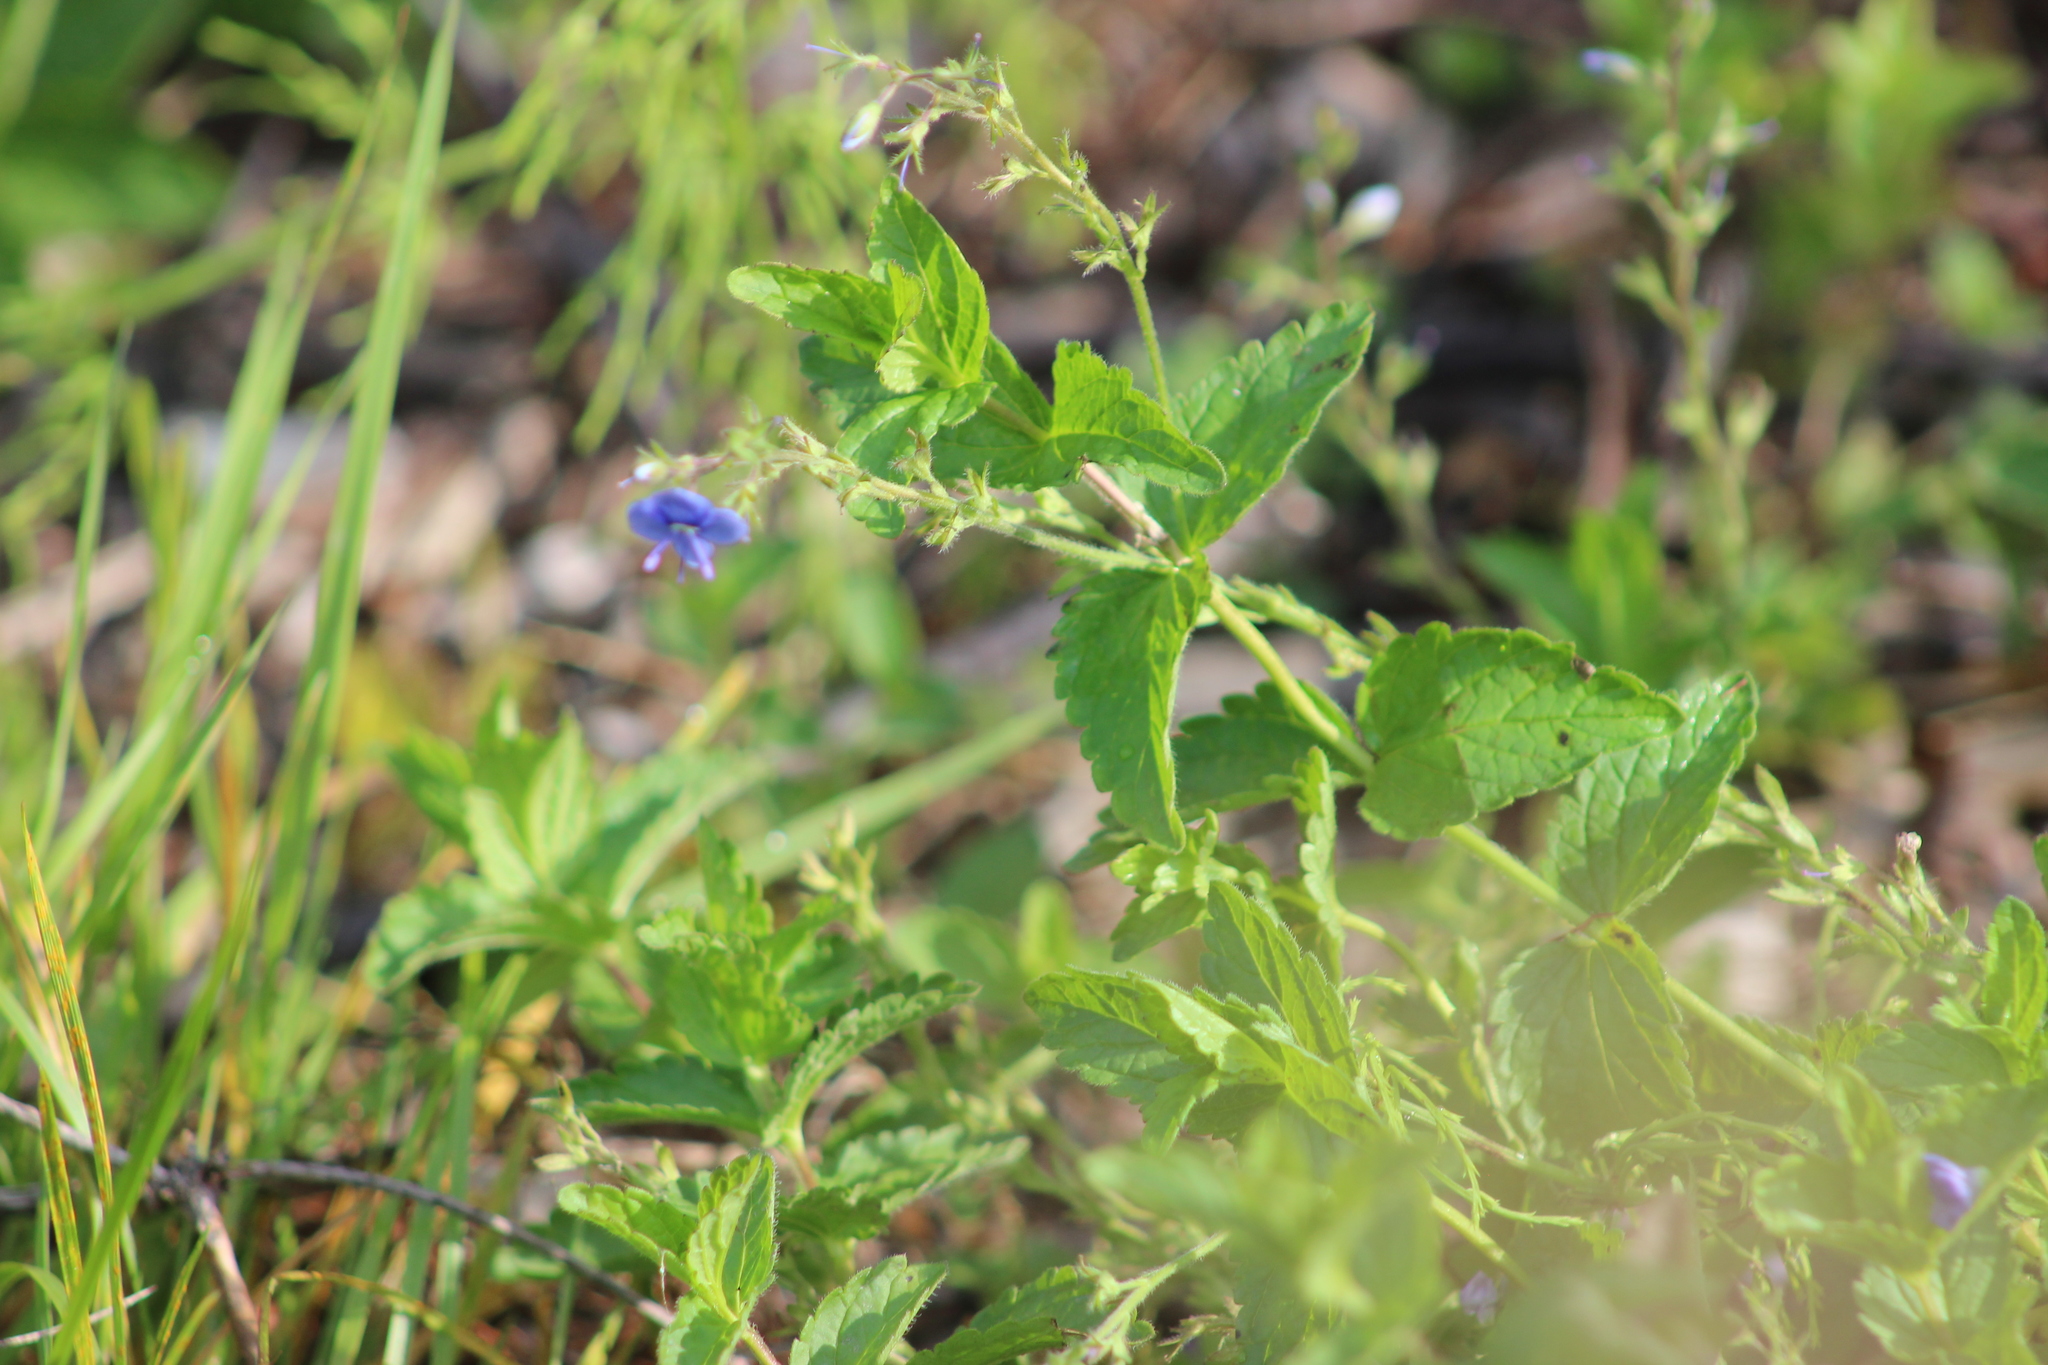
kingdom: Plantae
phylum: Tracheophyta
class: Magnoliopsida
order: Lamiales
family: Plantaginaceae
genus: Veronica
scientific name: Veronica chamaedrys
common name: Germander speedwell
